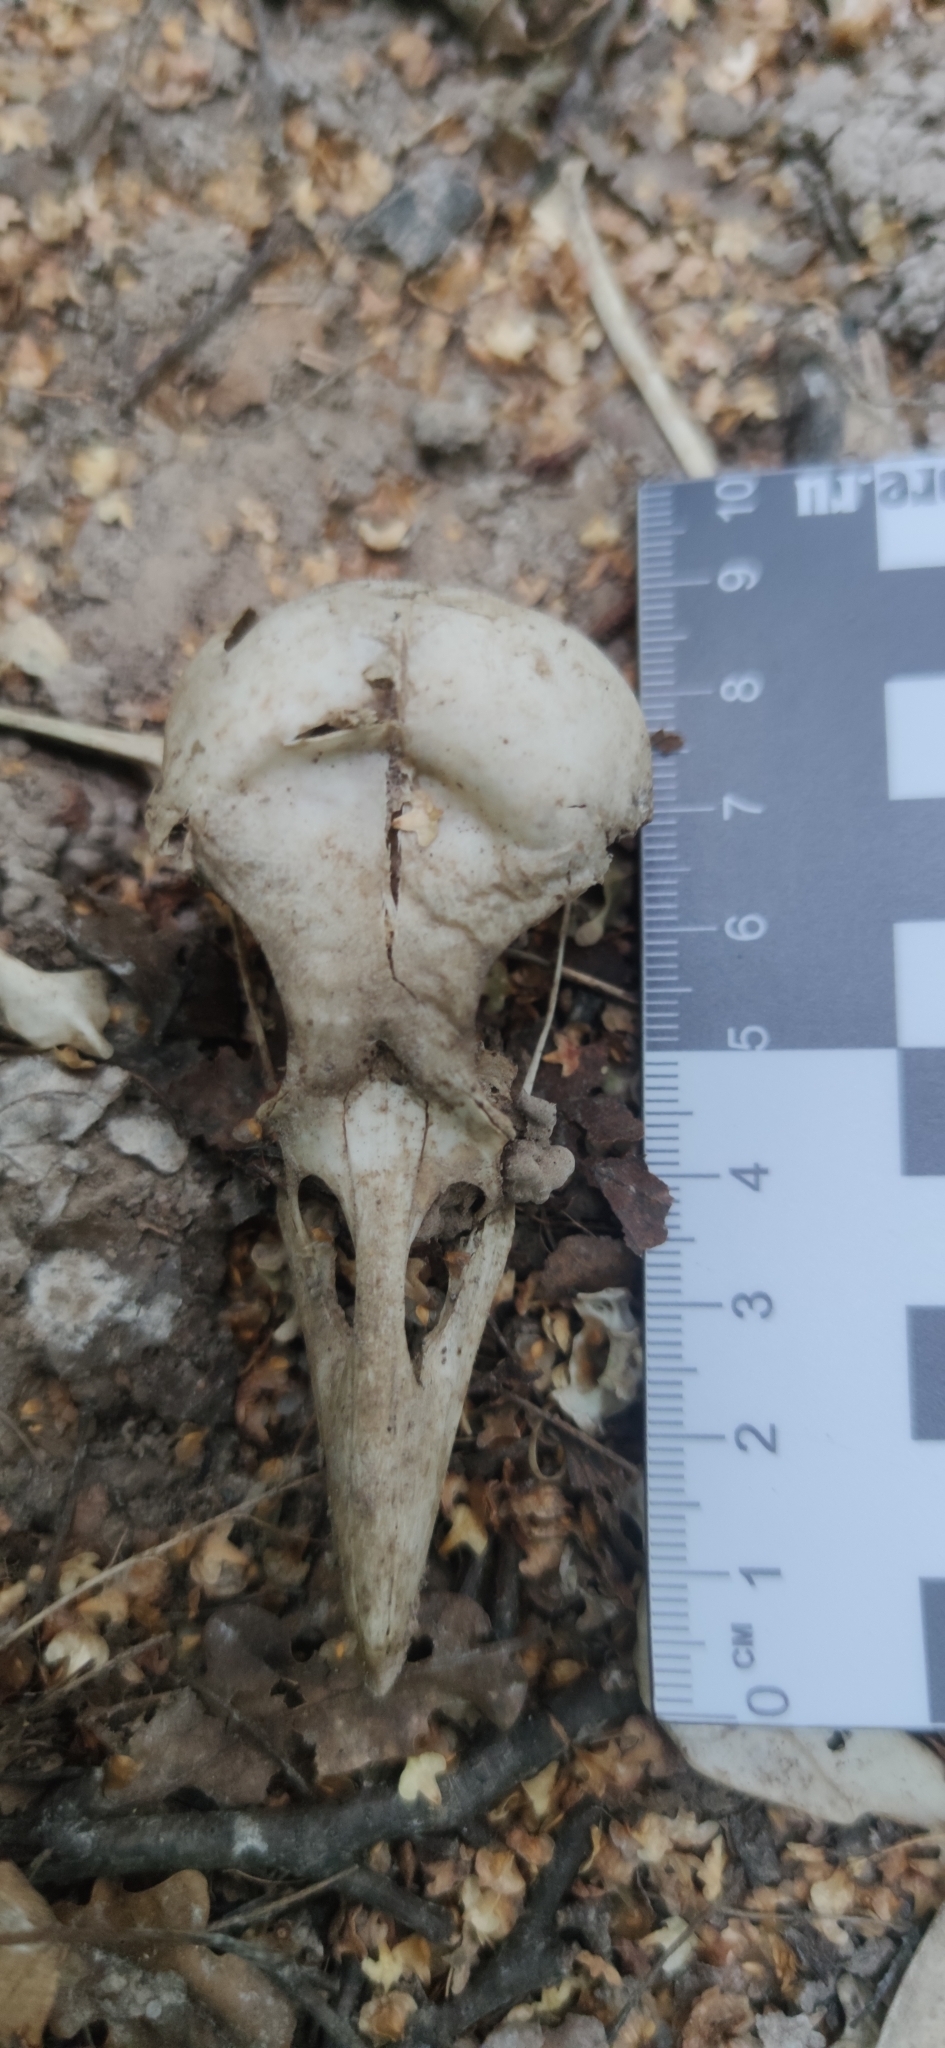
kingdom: Animalia
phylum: Chordata
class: Aves
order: Passeriformes
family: Corvidae
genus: Corvus
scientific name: Corvus cornix
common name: Hooded crow
